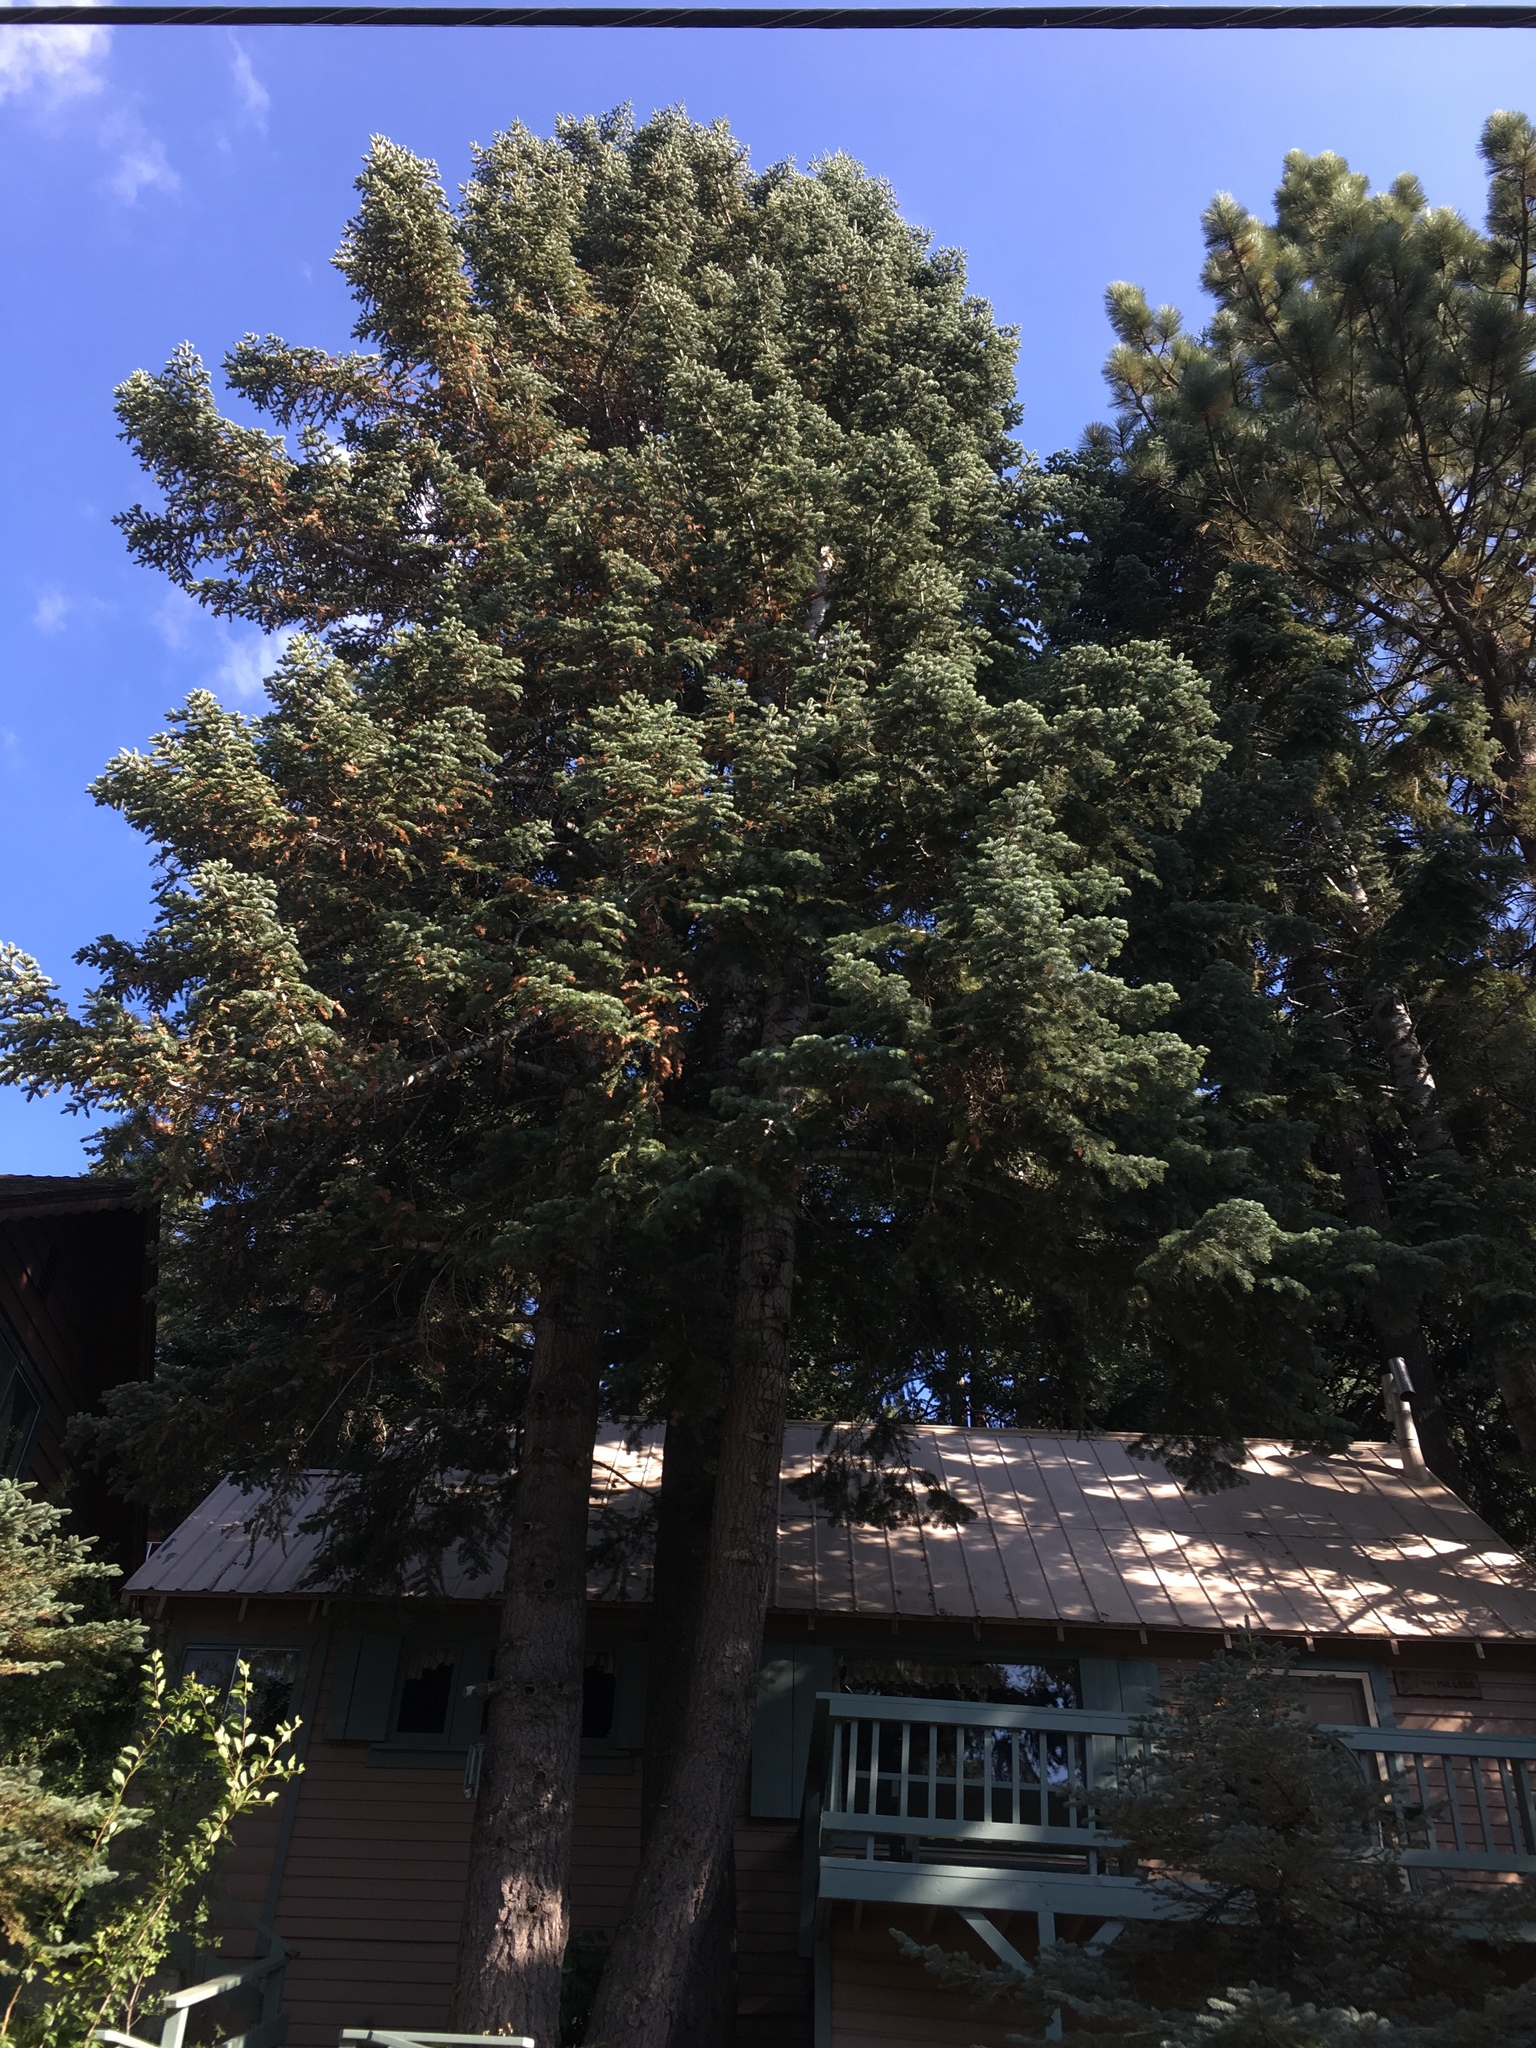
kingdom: Plantae
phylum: Tracheophyta
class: Pinopsida
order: Pinales
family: Pinaceae
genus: Abies
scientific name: Abies concolor
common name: Colorado fir
